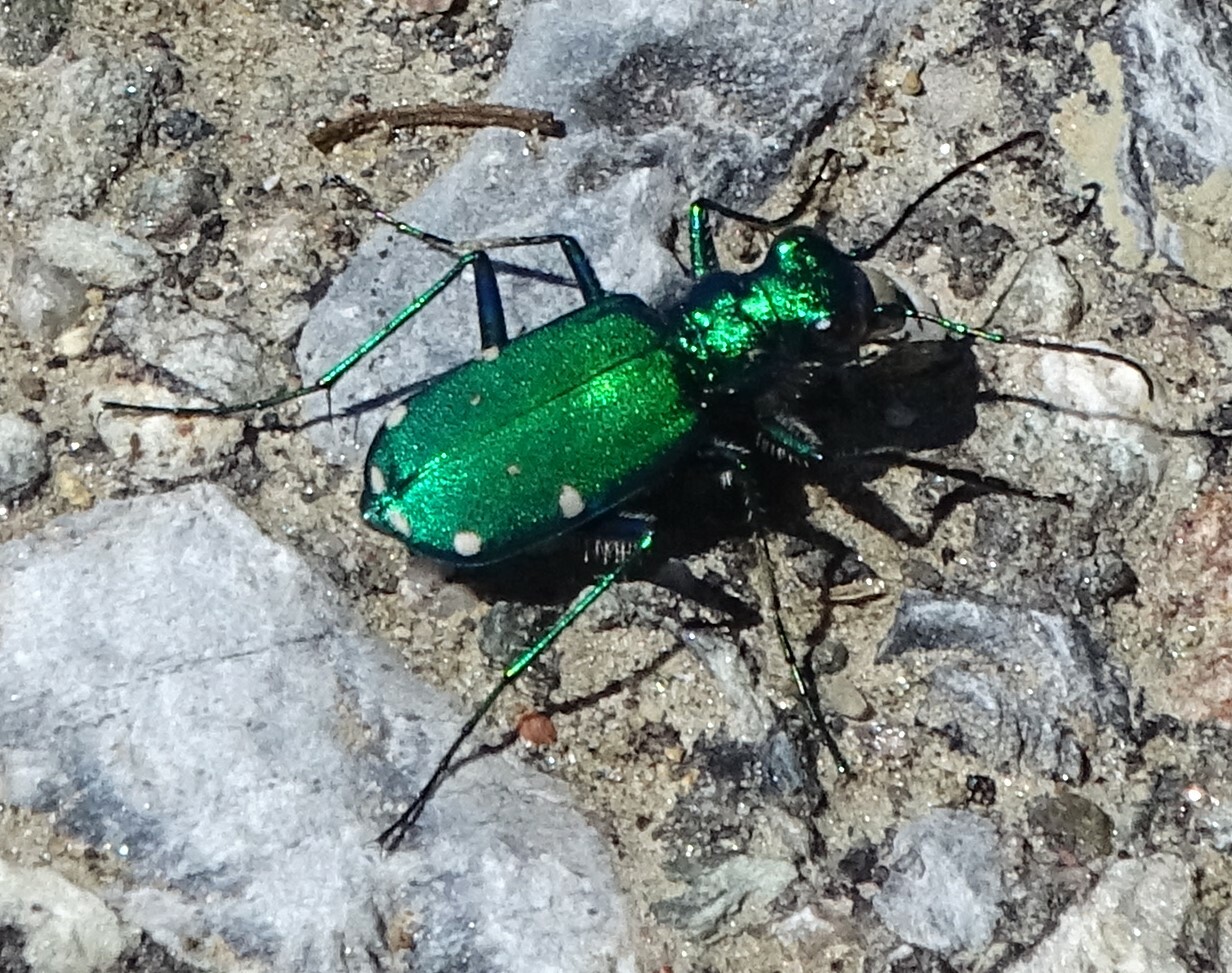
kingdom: Animalia
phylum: Arthropoda
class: Insecta
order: Coleoptera
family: Carabidae
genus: Cicindela
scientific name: Cicindela sexguttata
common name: Six-spotted tiger beetle
